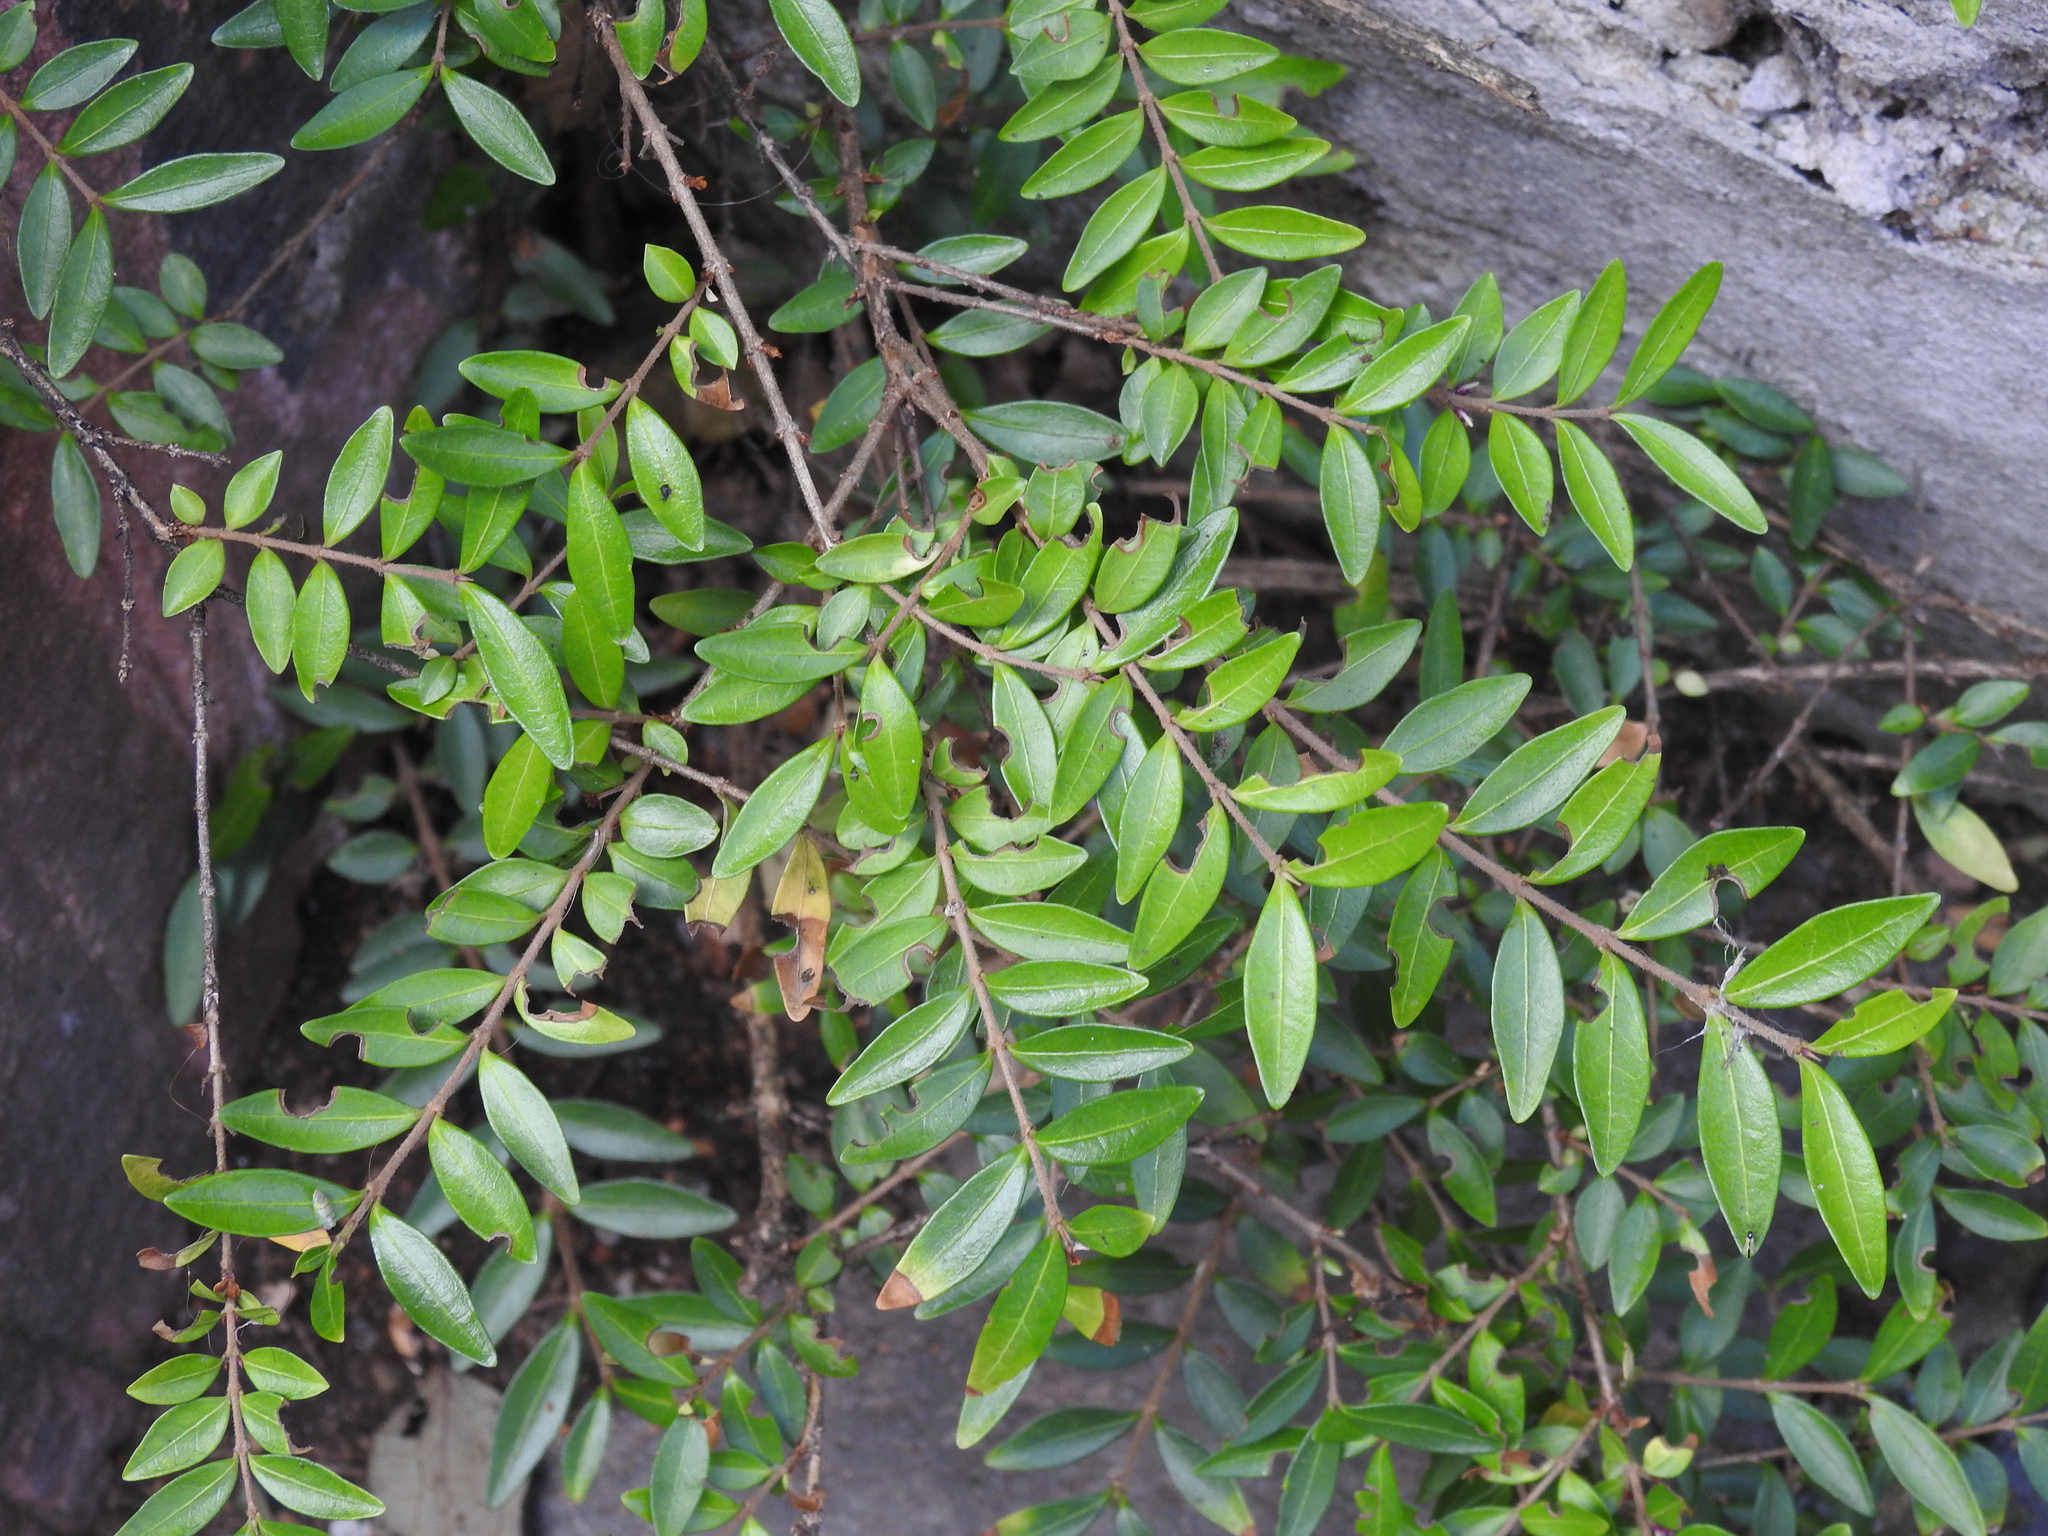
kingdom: Plantae
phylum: Tracheophyta
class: Magnoliopsida
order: Dipsacales
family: Caprifoliaceae
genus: Lonicera
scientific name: Lonicera ligustrina
